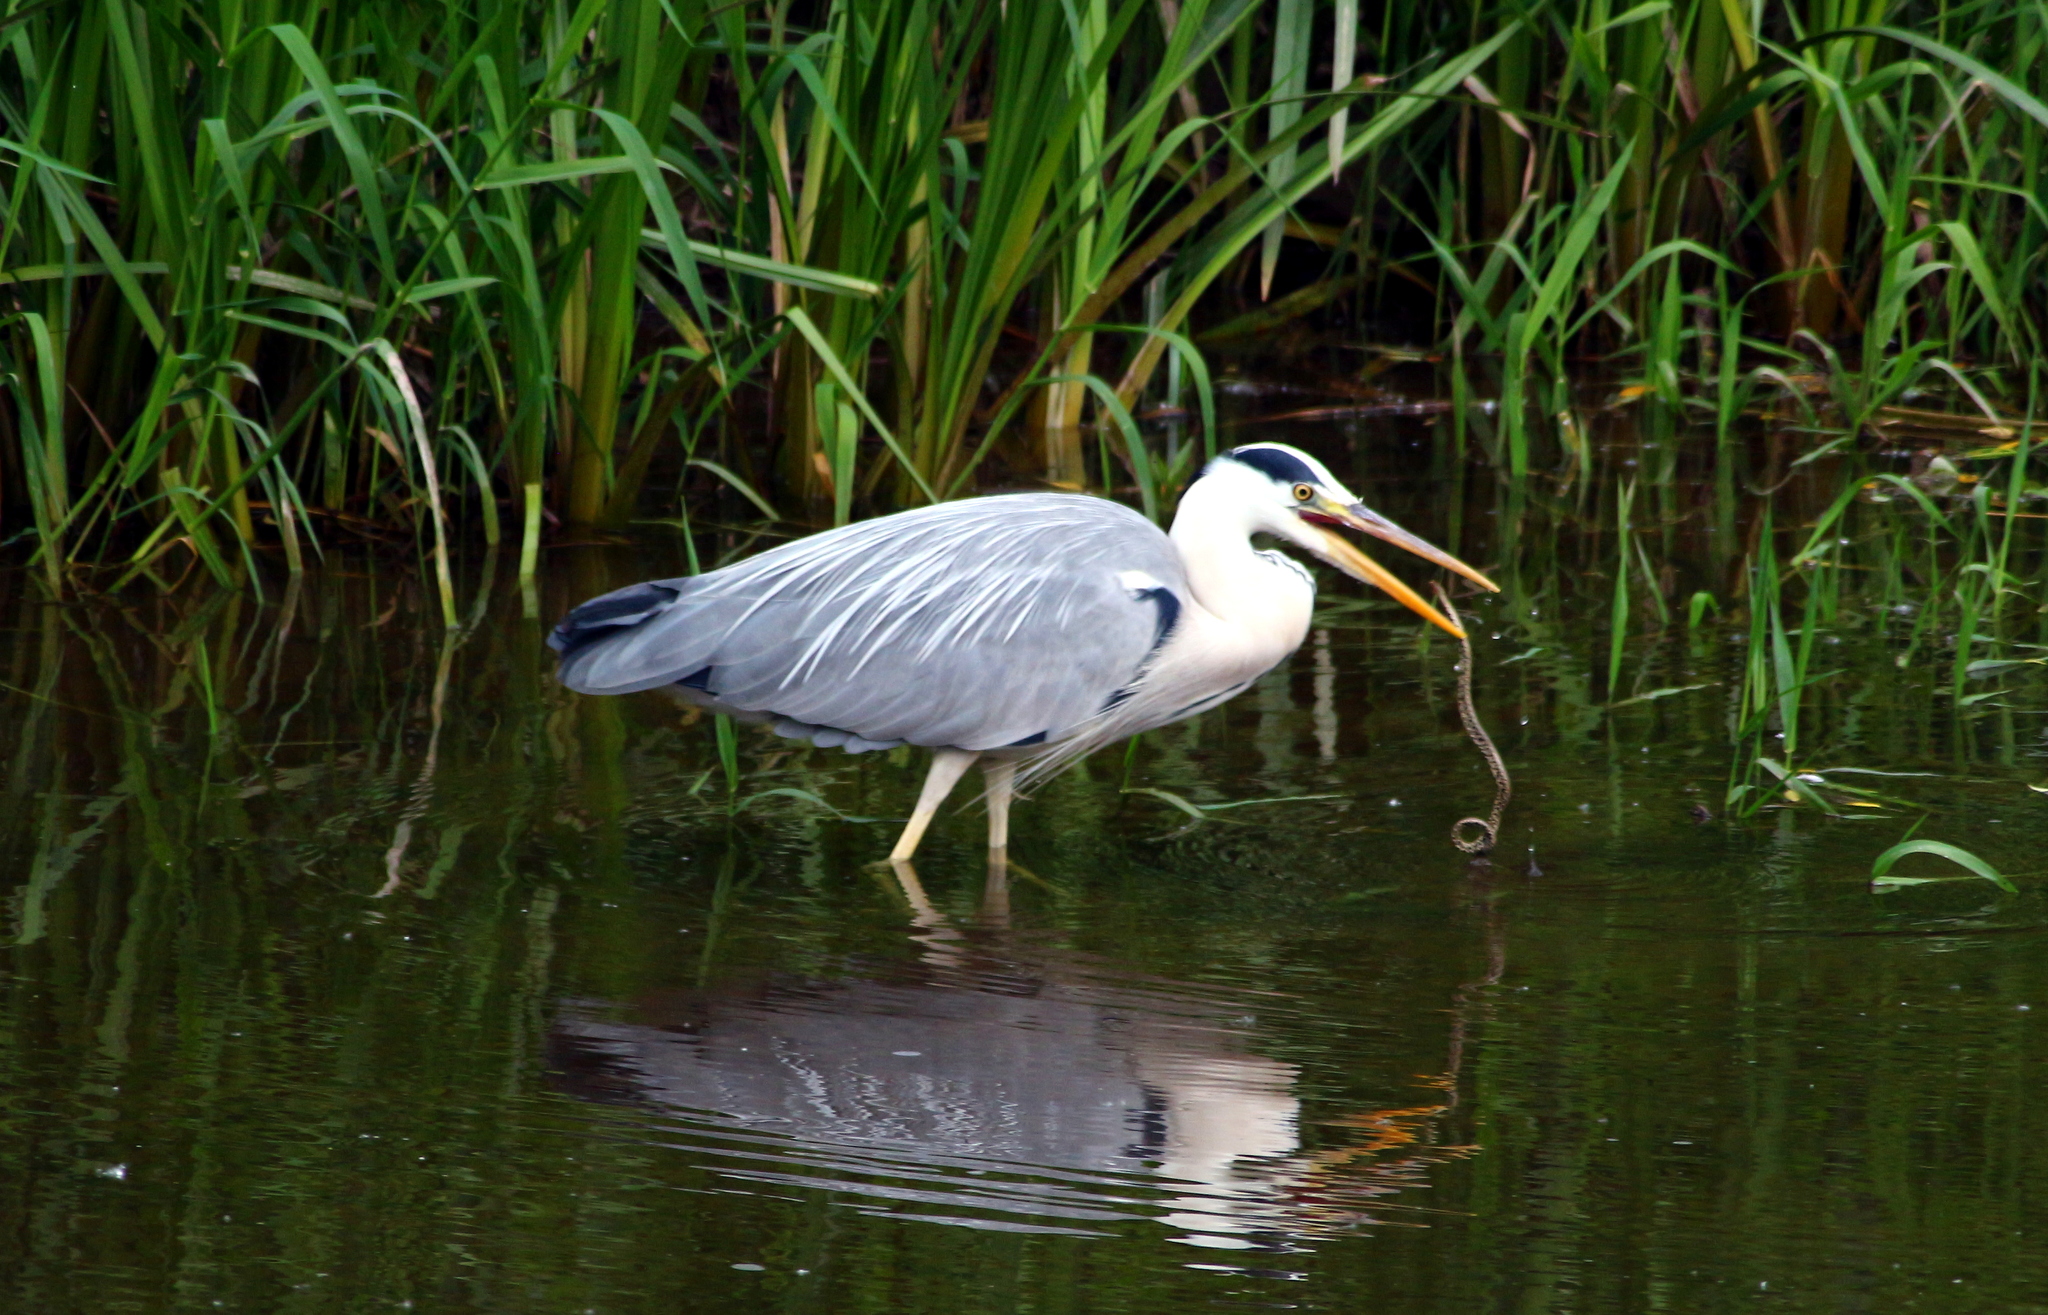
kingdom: Animalia
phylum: Chordata
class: Aves
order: Pelecaniformes
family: Ardeidae
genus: Ardea
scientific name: Ardea cinerea
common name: Grey heron
